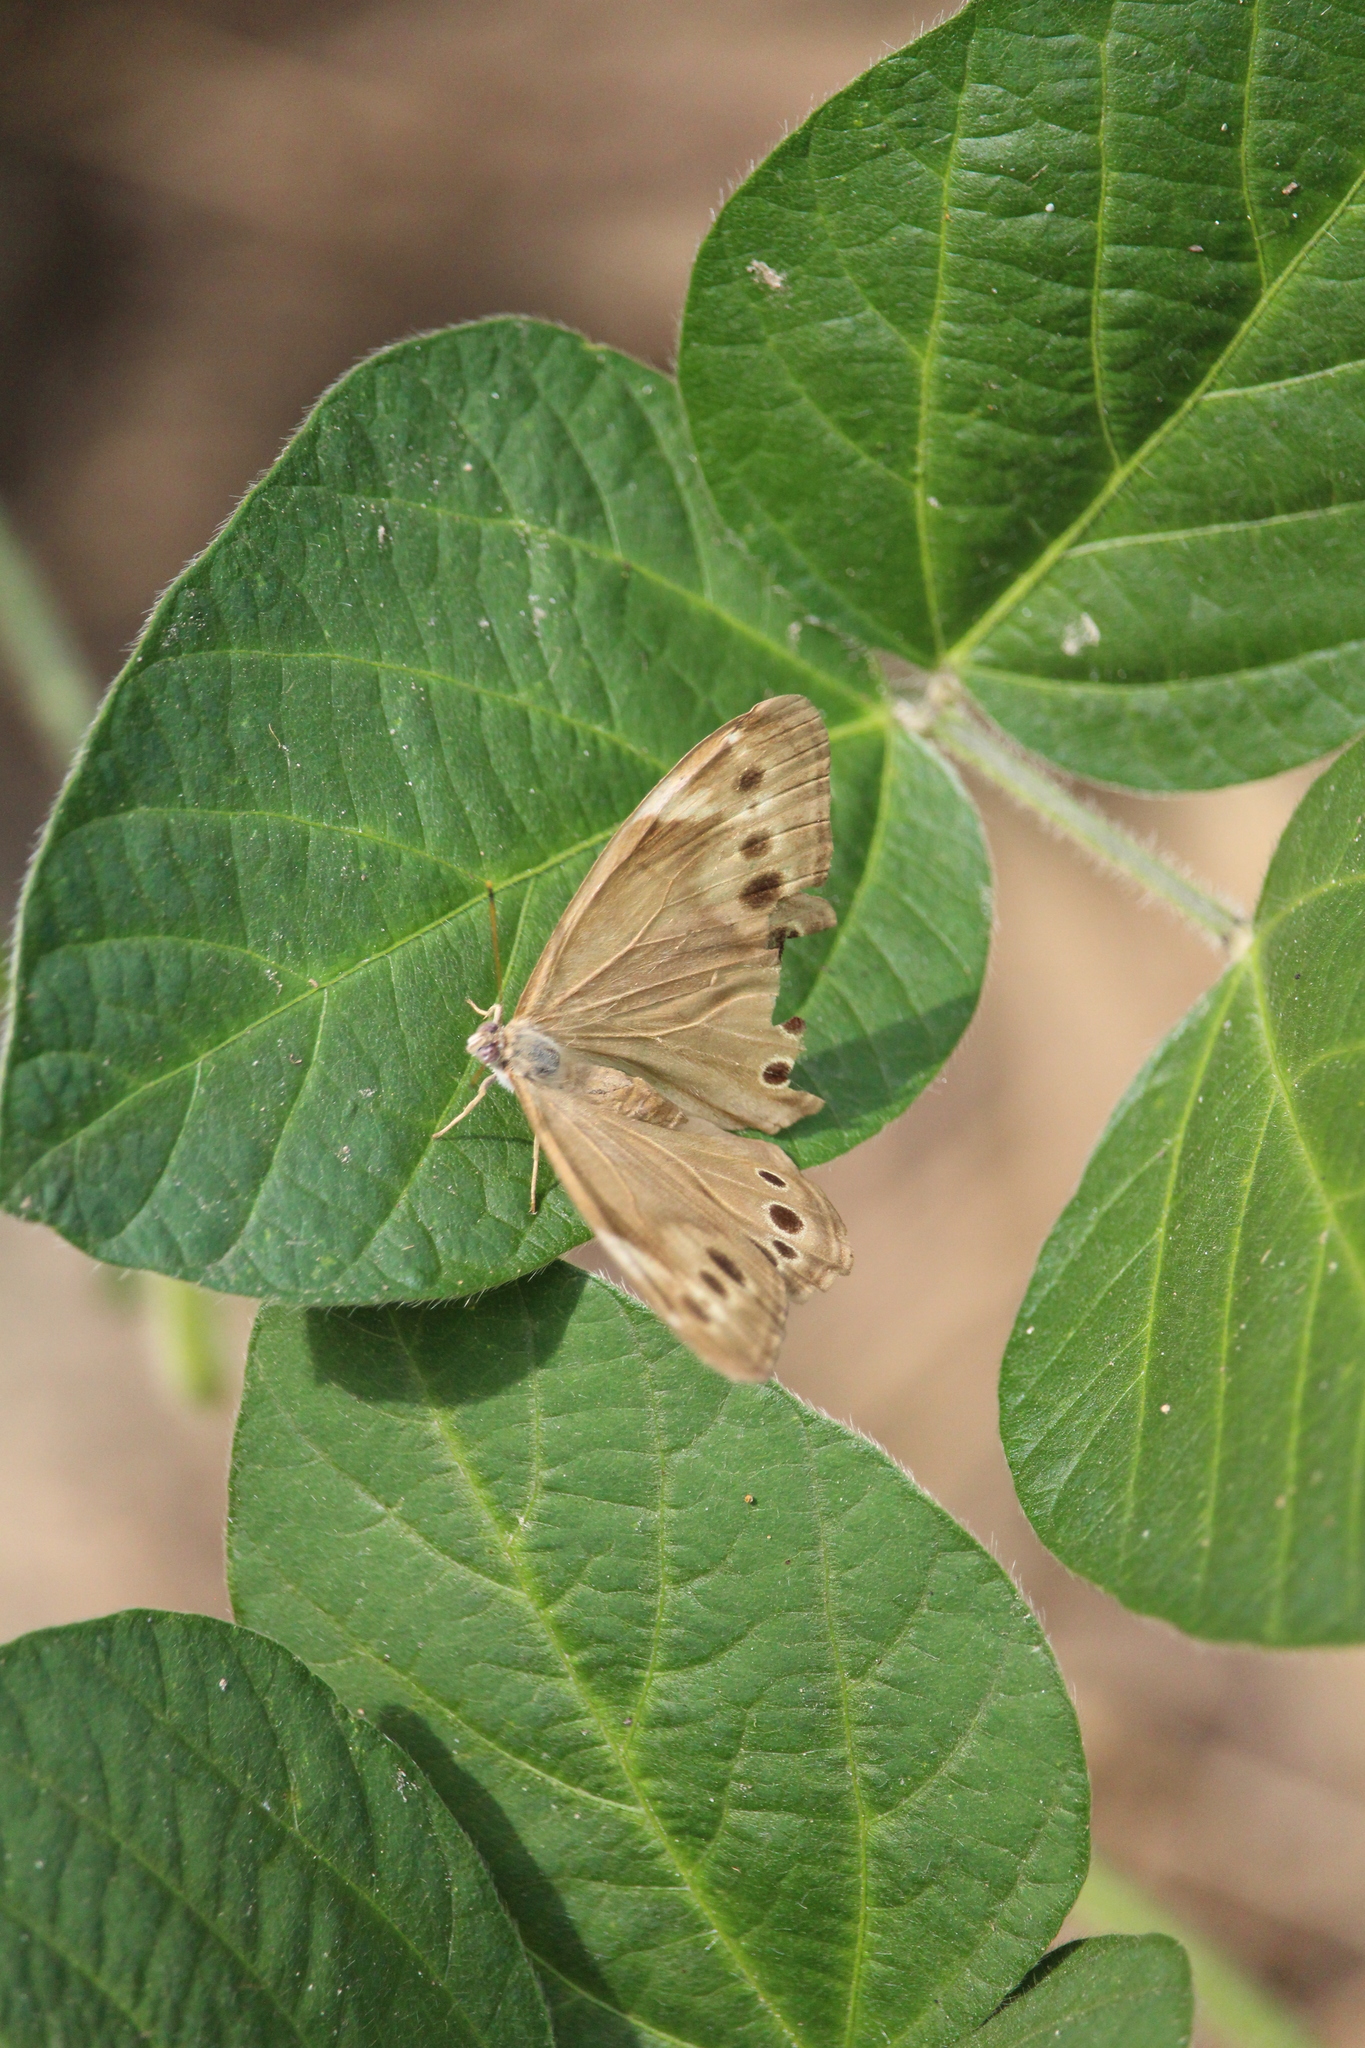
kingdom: Animalia
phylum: Arthropoda
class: Insecta
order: Lepidoptera
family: Nymphalidae
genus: Lethe
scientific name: Lethe anthedon
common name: Northern pearly-eye
